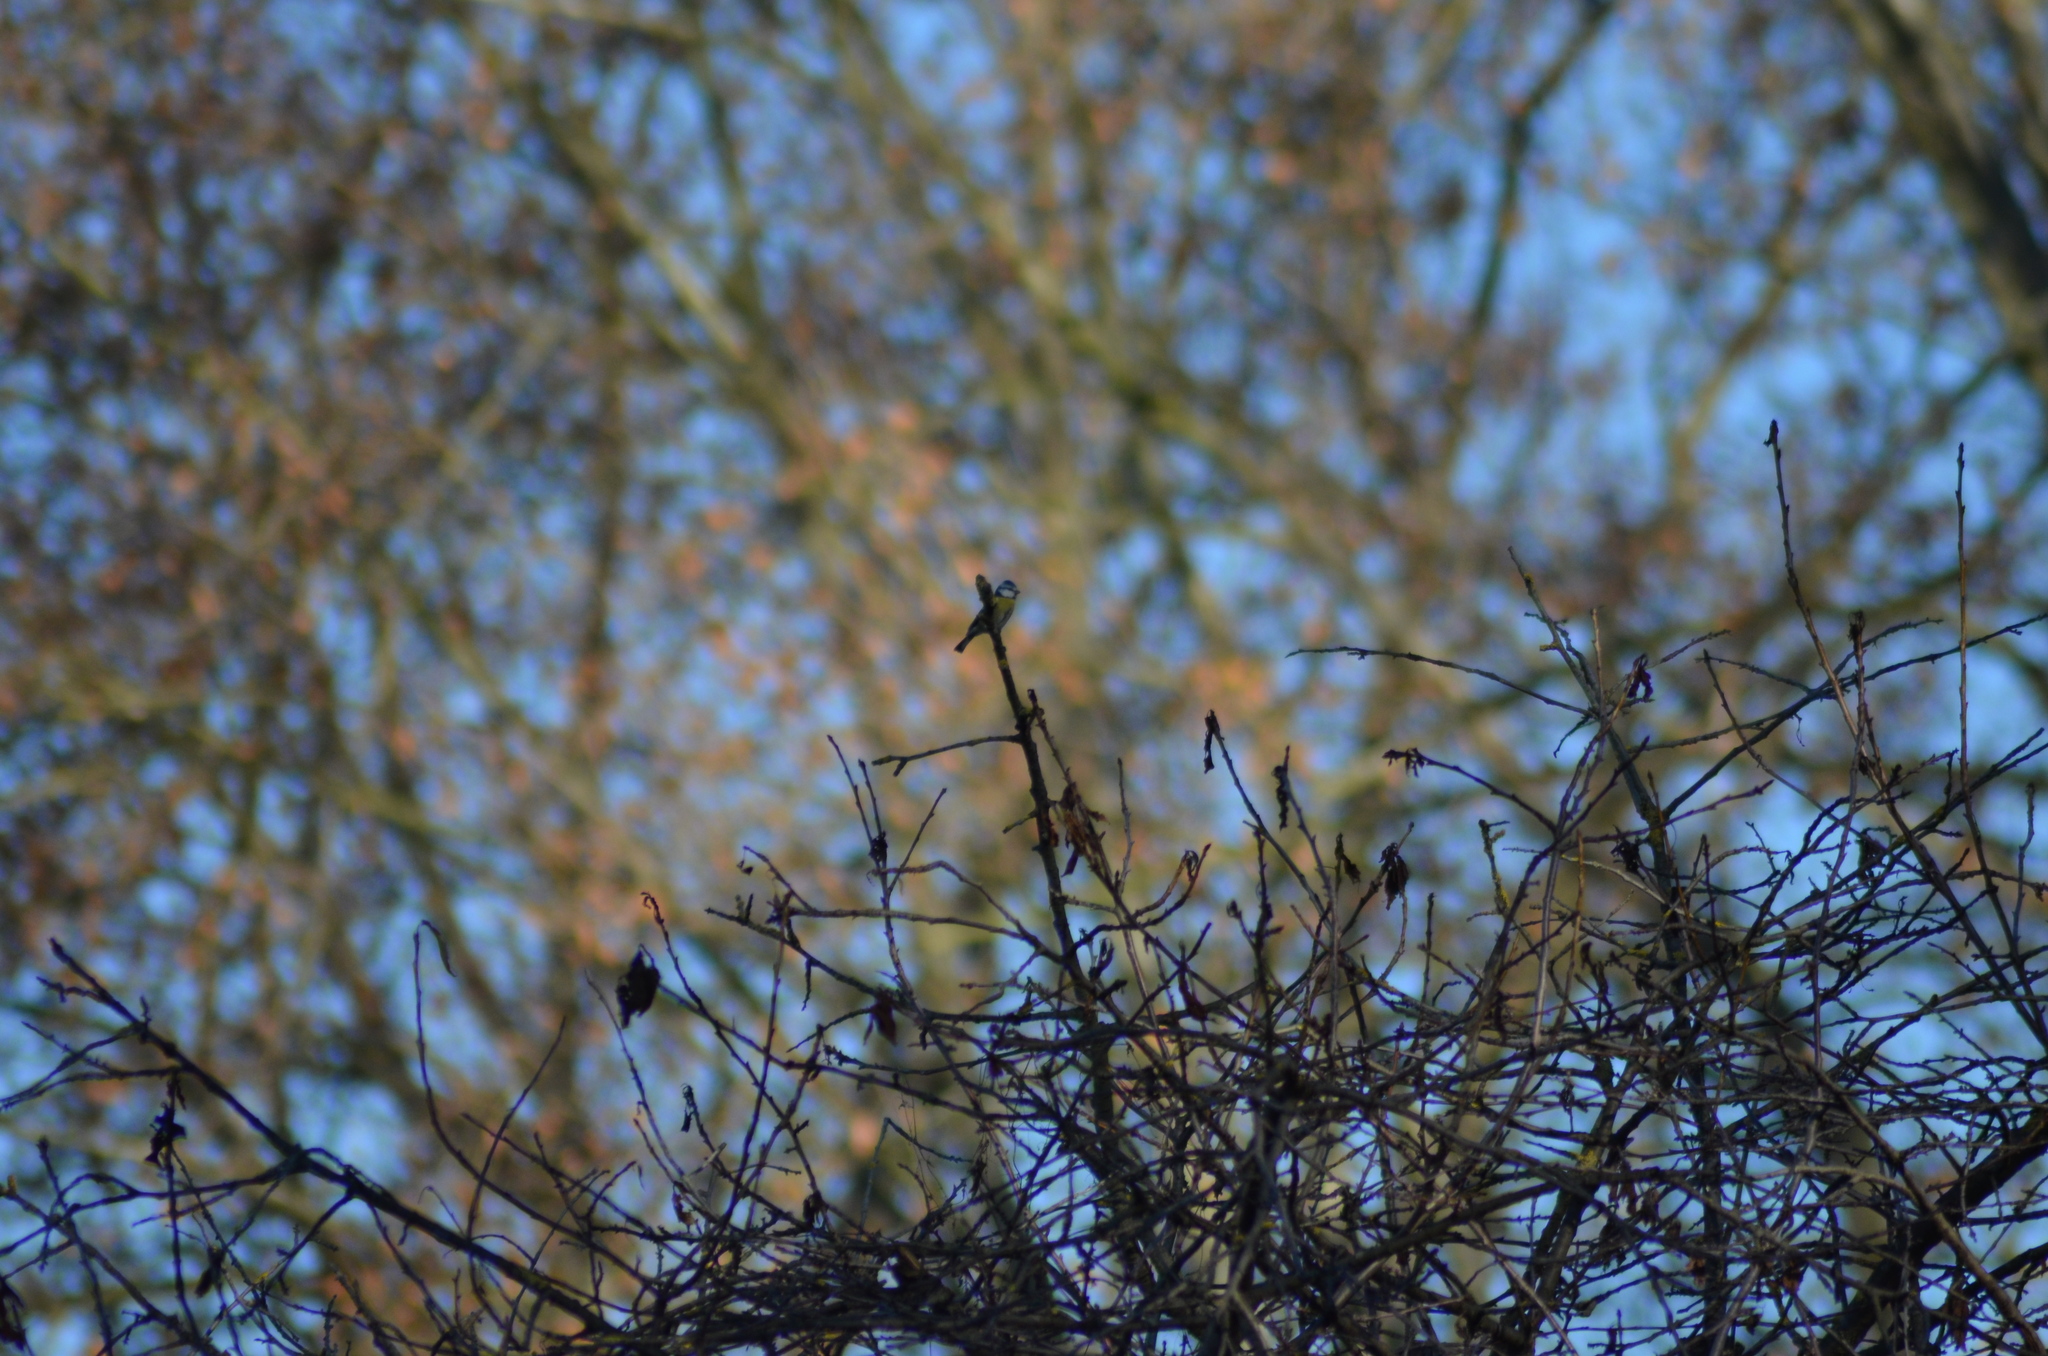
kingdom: Animalia
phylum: Chordata
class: Aves
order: Passeriformes
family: Paridae
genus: Cyanistes
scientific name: Cyanistes caeruleus
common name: Eurasian blue tit
